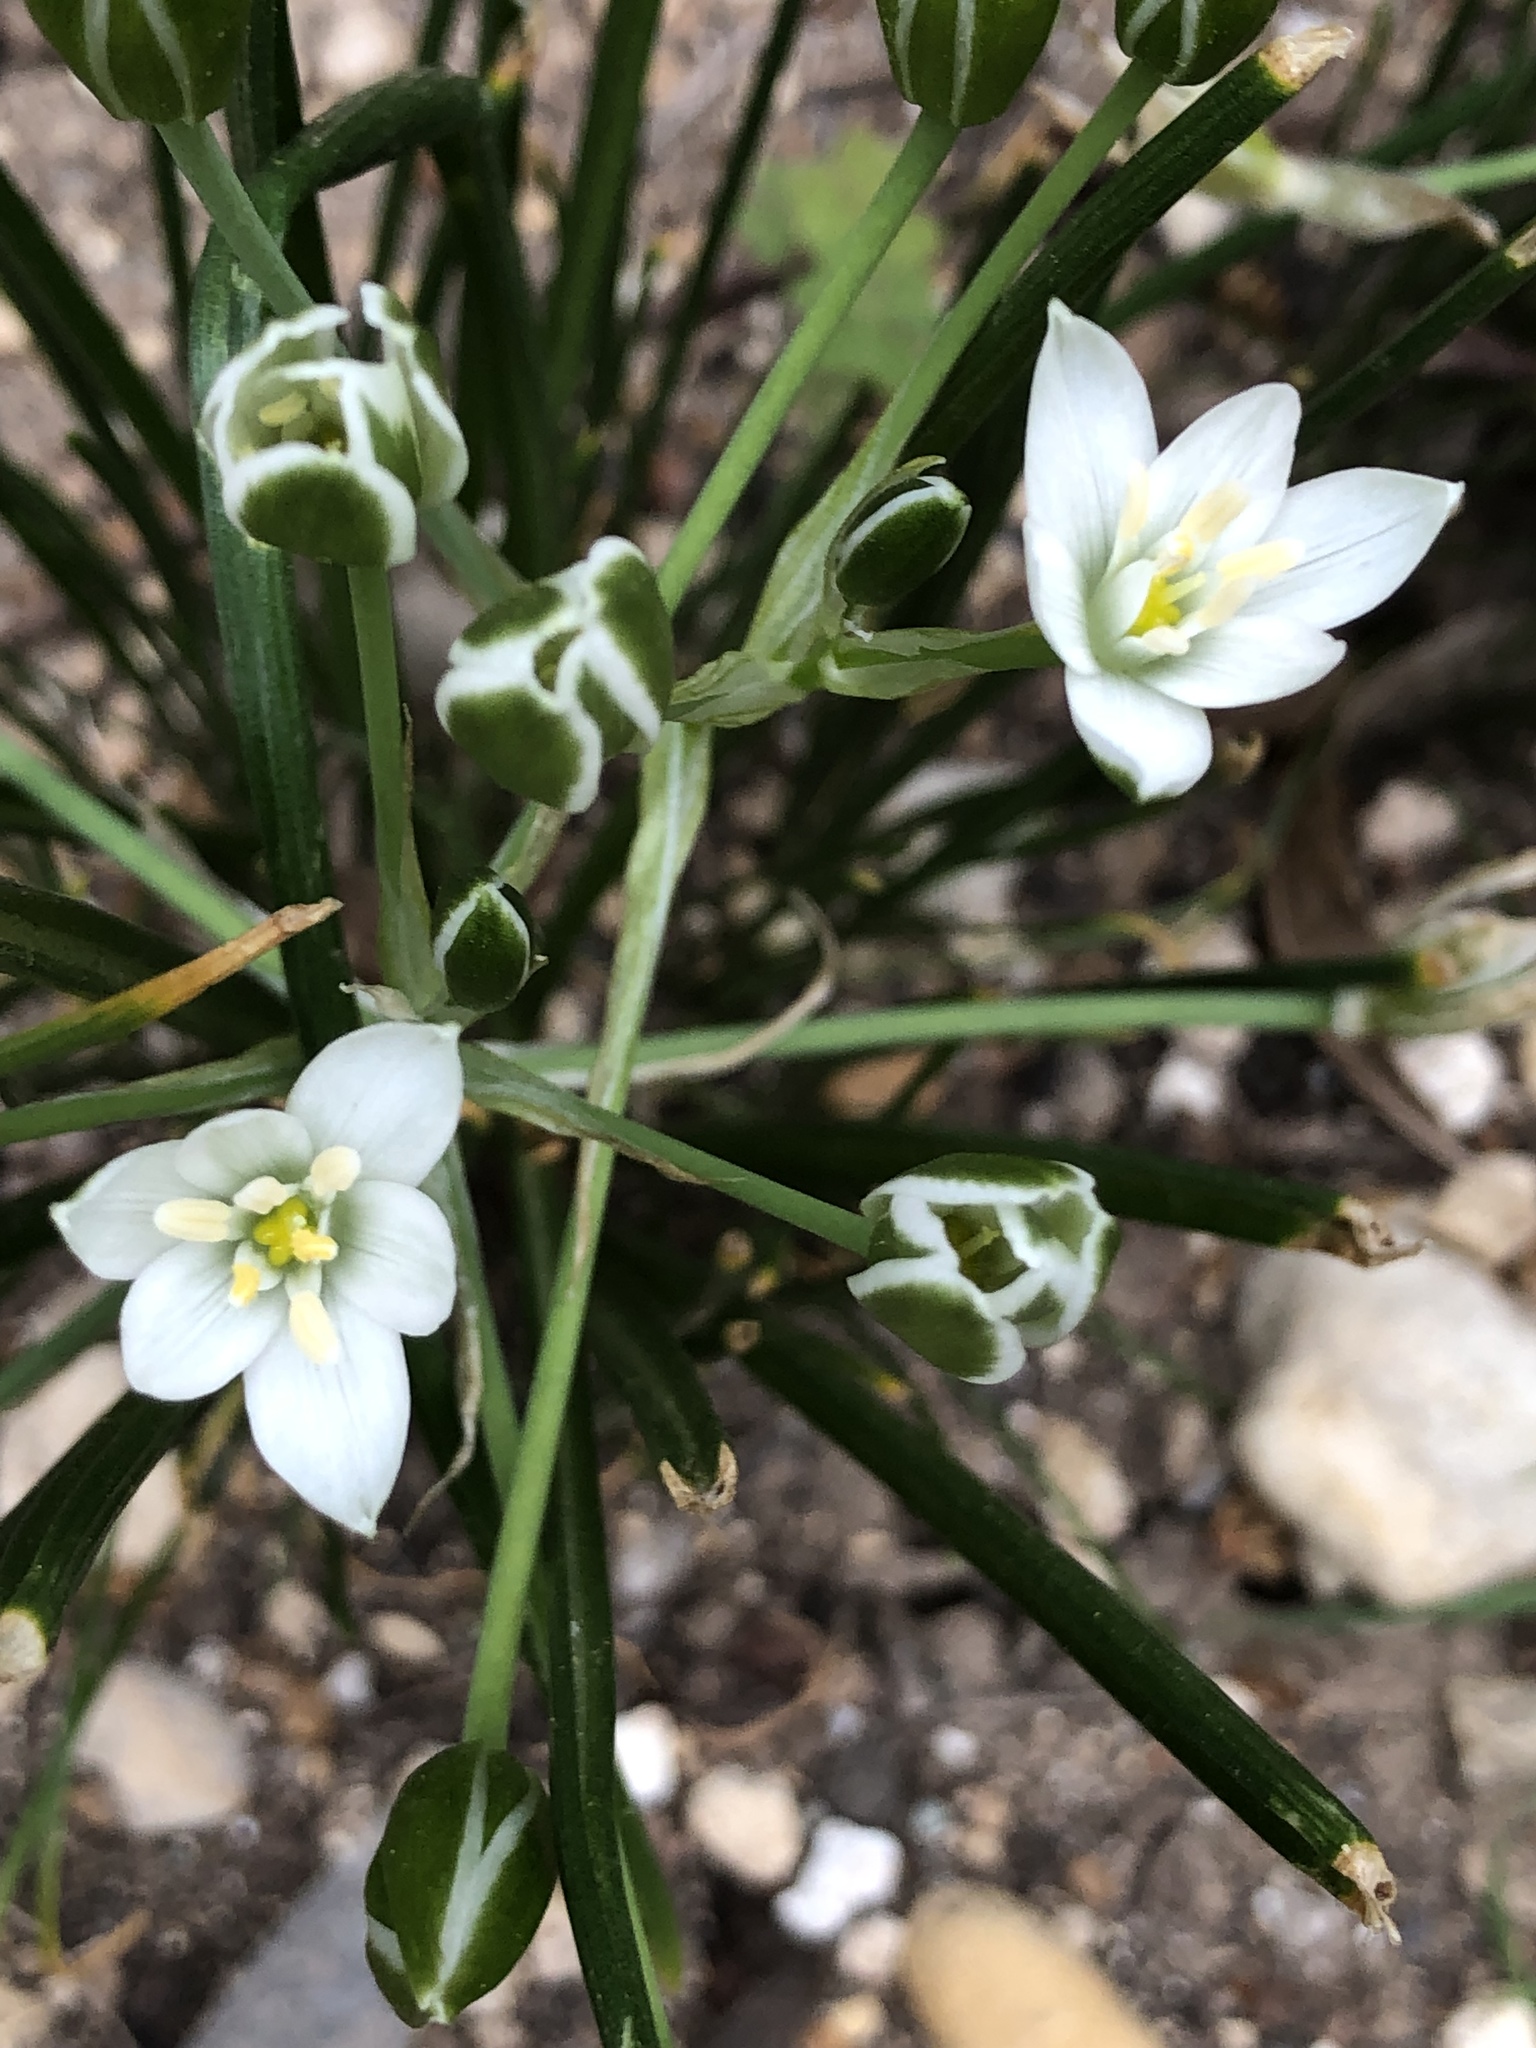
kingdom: Plantae
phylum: Tracheophyta
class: Liliopsida
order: Asparagales
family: Asparagaceae
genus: Ornithogalum
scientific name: Ornithogalum umbellatum
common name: Garden star-of-bethlehem
